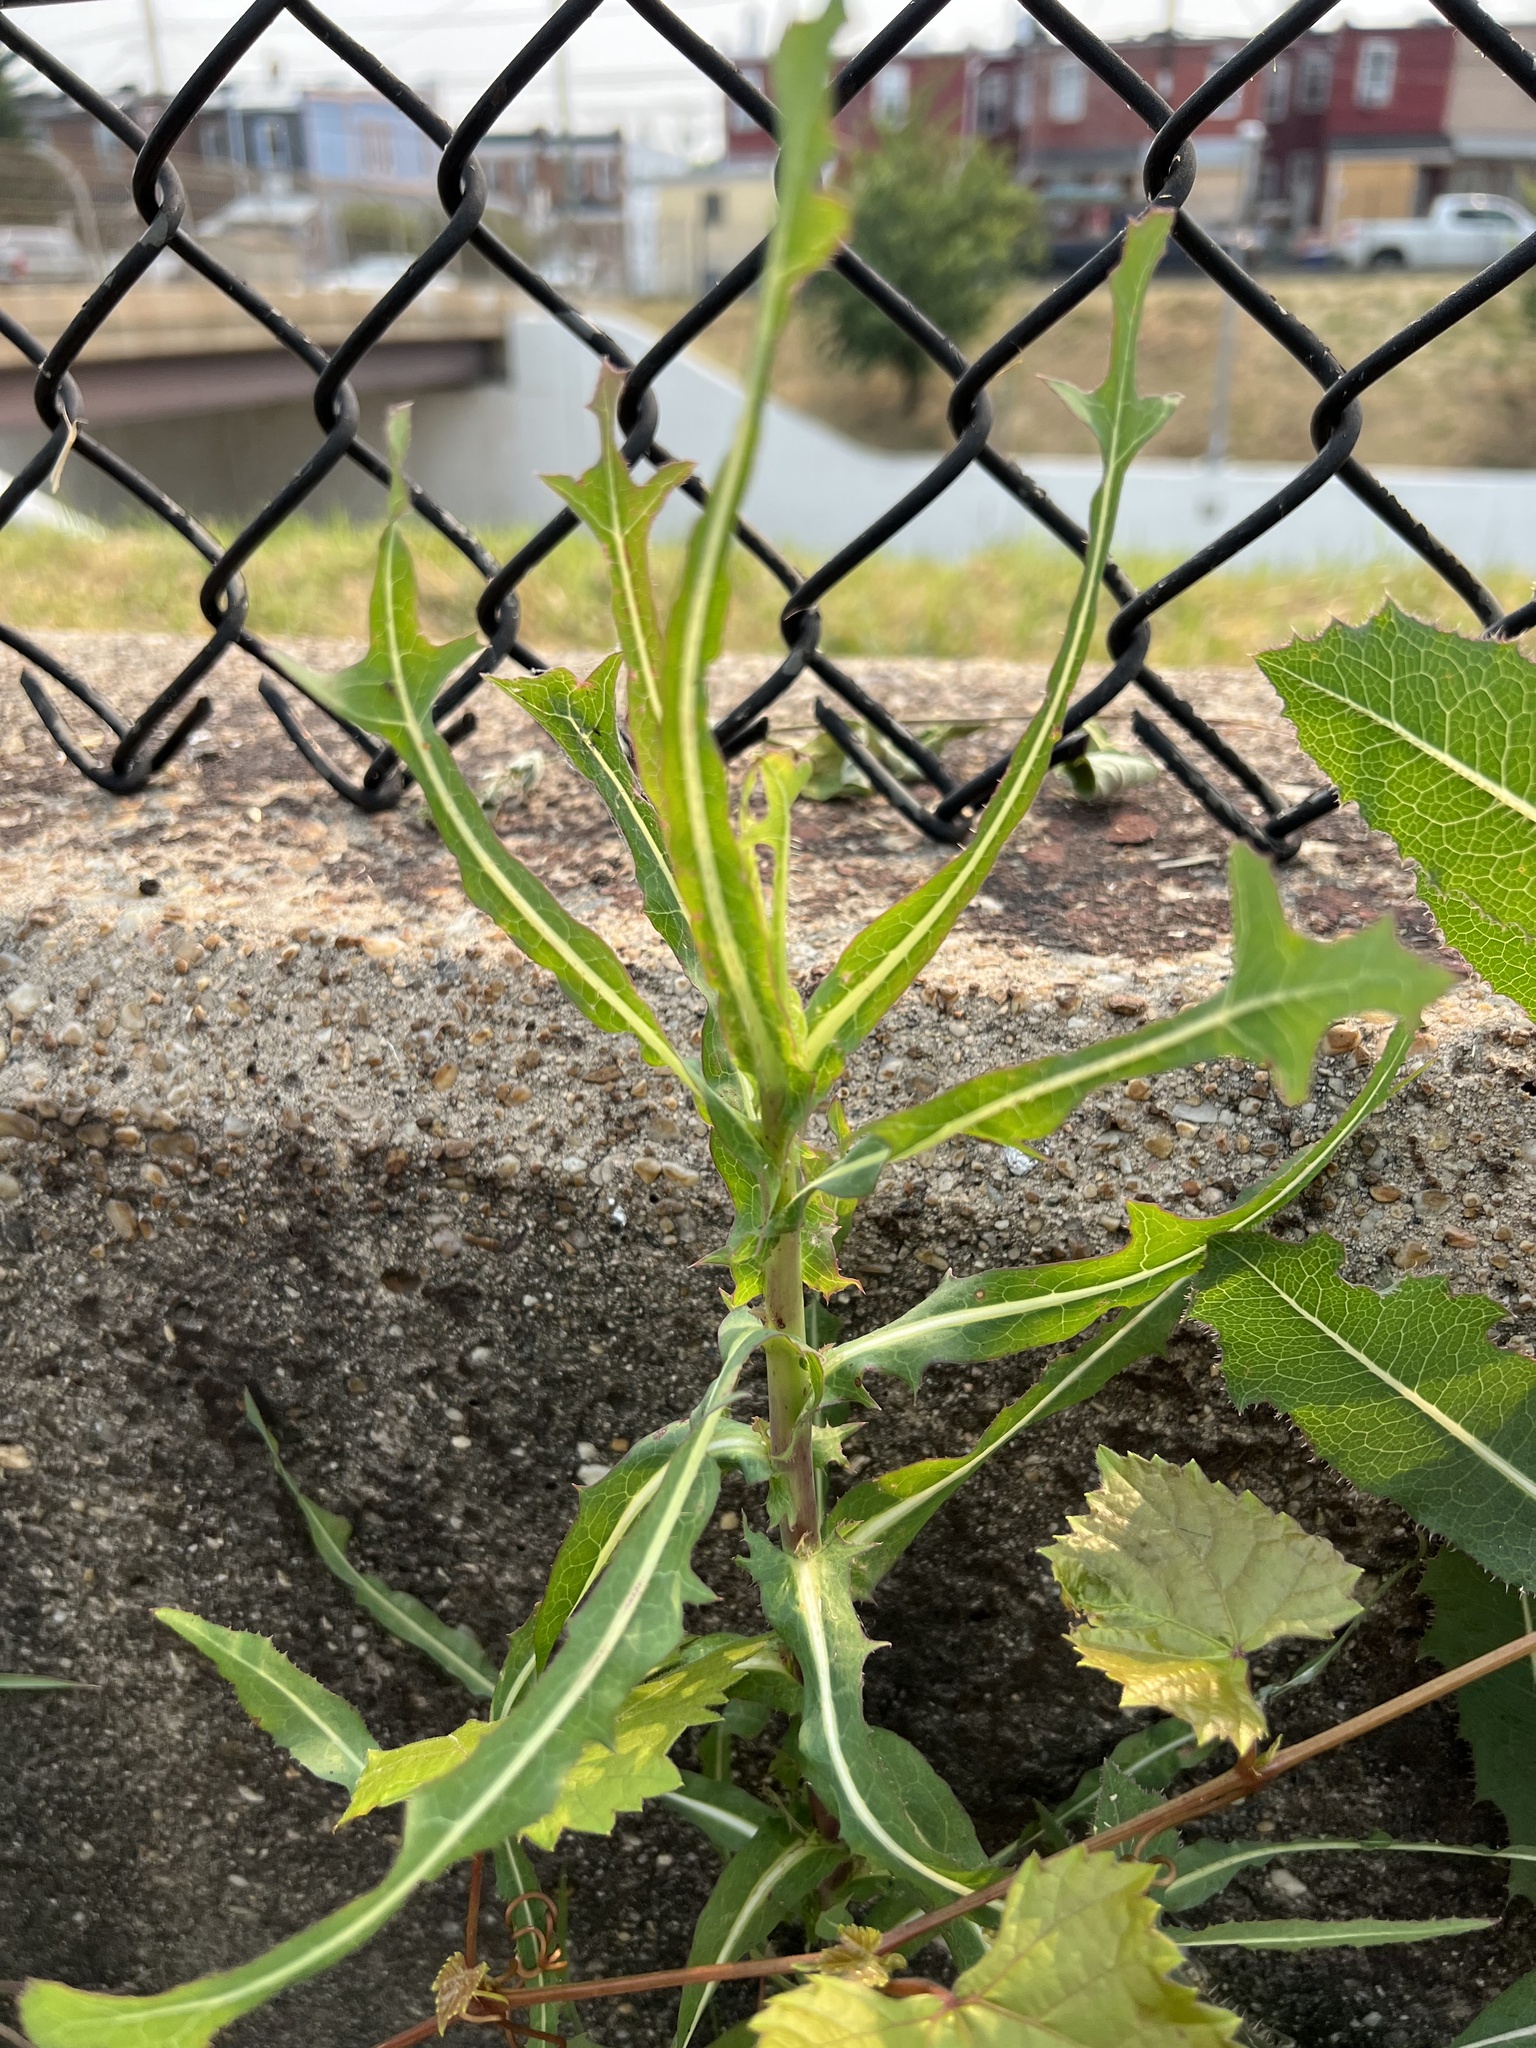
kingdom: Plantae
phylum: Tracheophyta
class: Magnoliopsida
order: Asterales
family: Asteraceae
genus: Lactuca
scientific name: Lactuca serriola
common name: Prickly lettuce
